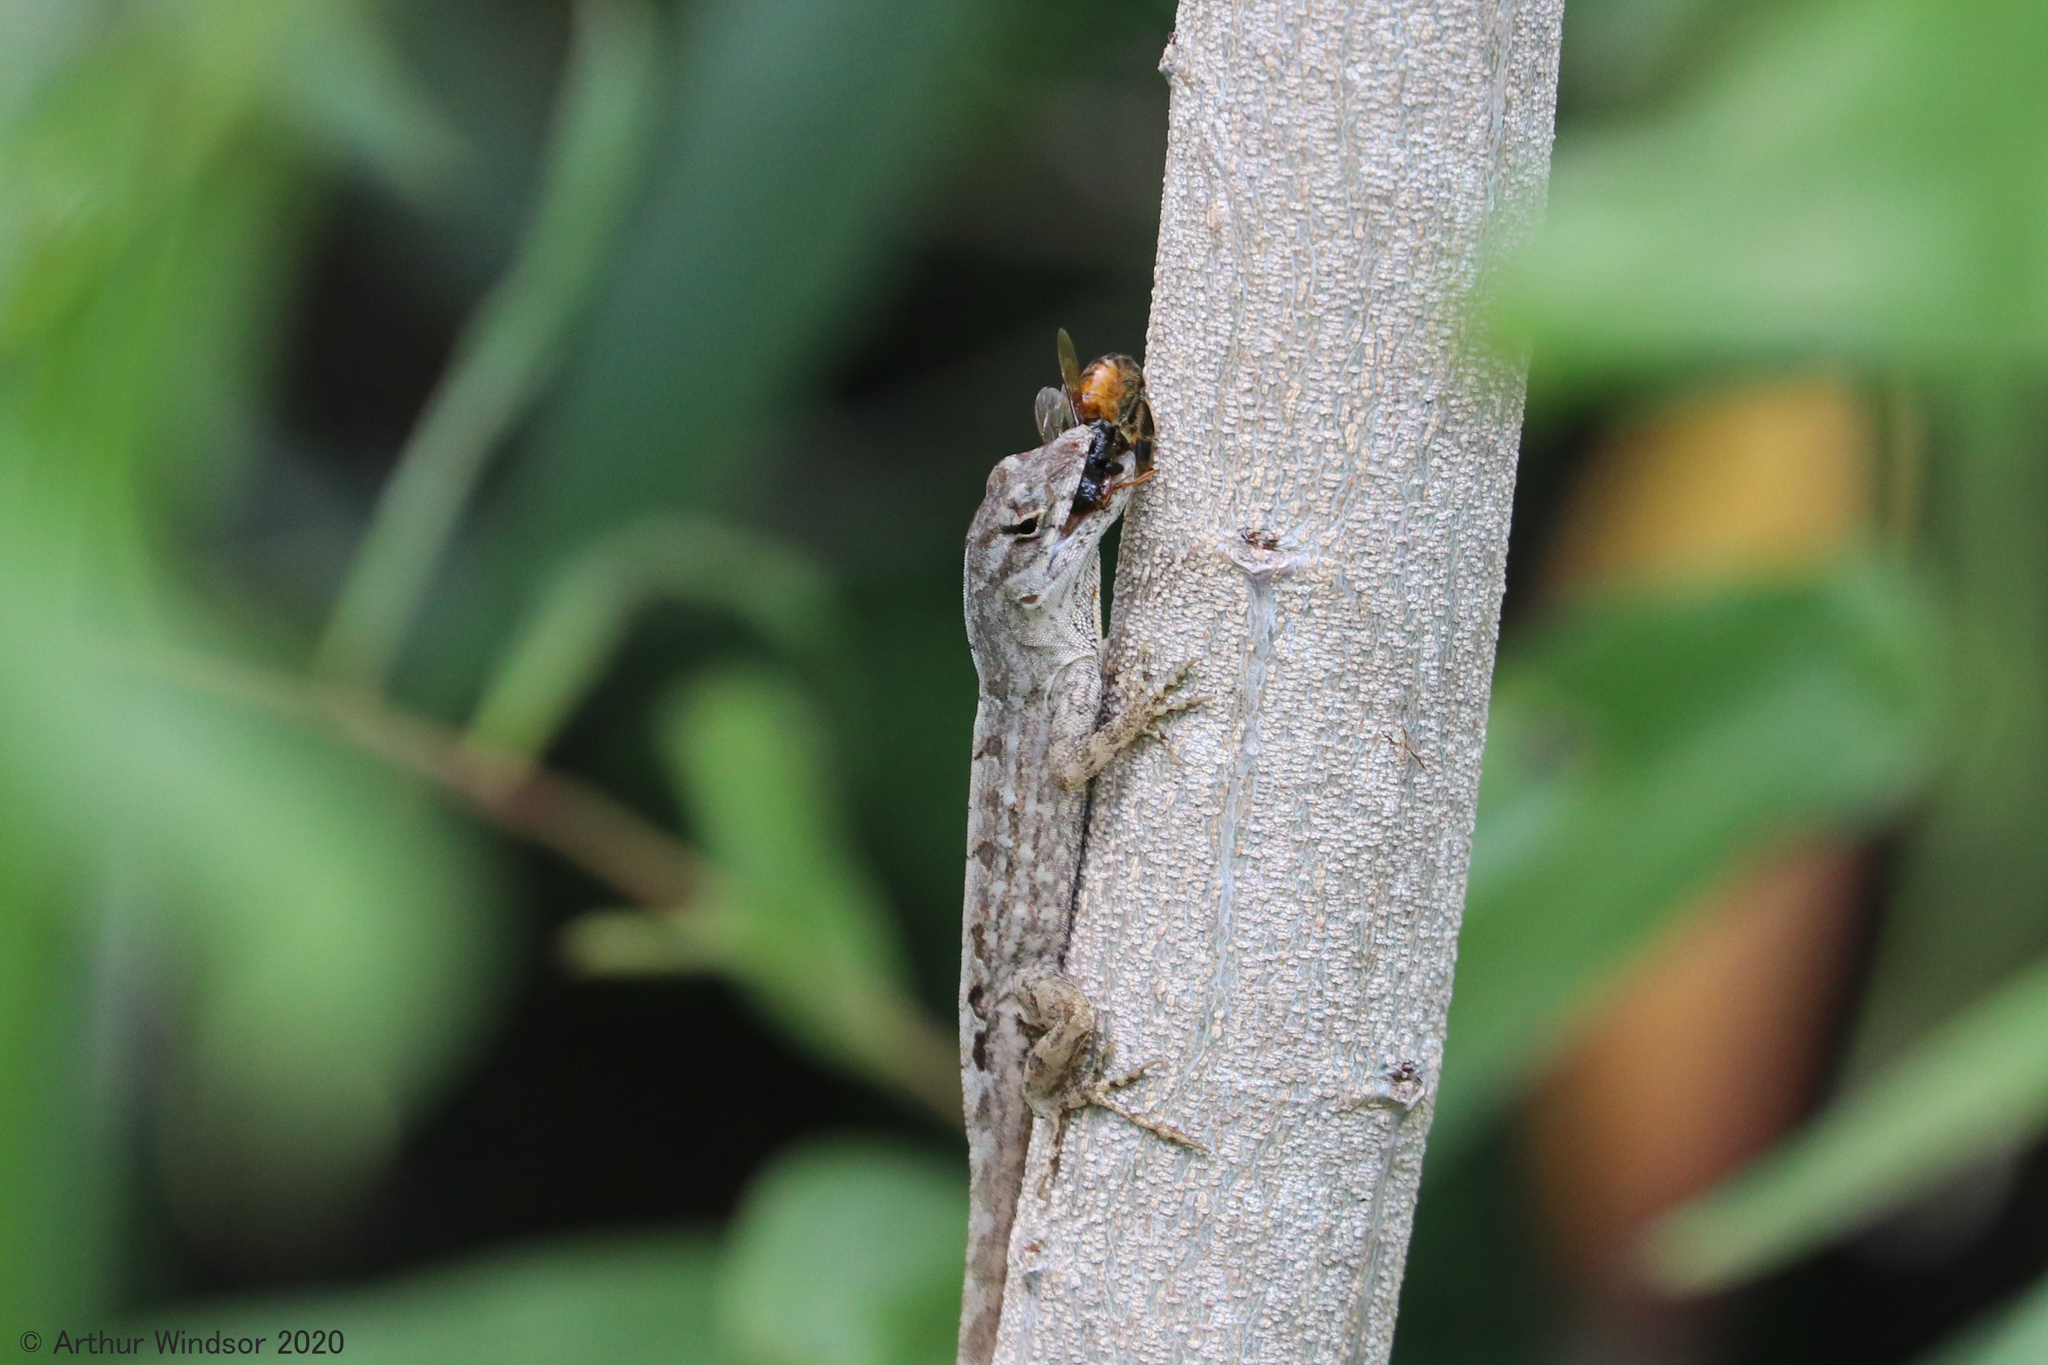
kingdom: Animalia
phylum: Chordata
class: Squamata
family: Dactyloidae
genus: Anolis
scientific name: Anolis sagrei
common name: Brown anole
